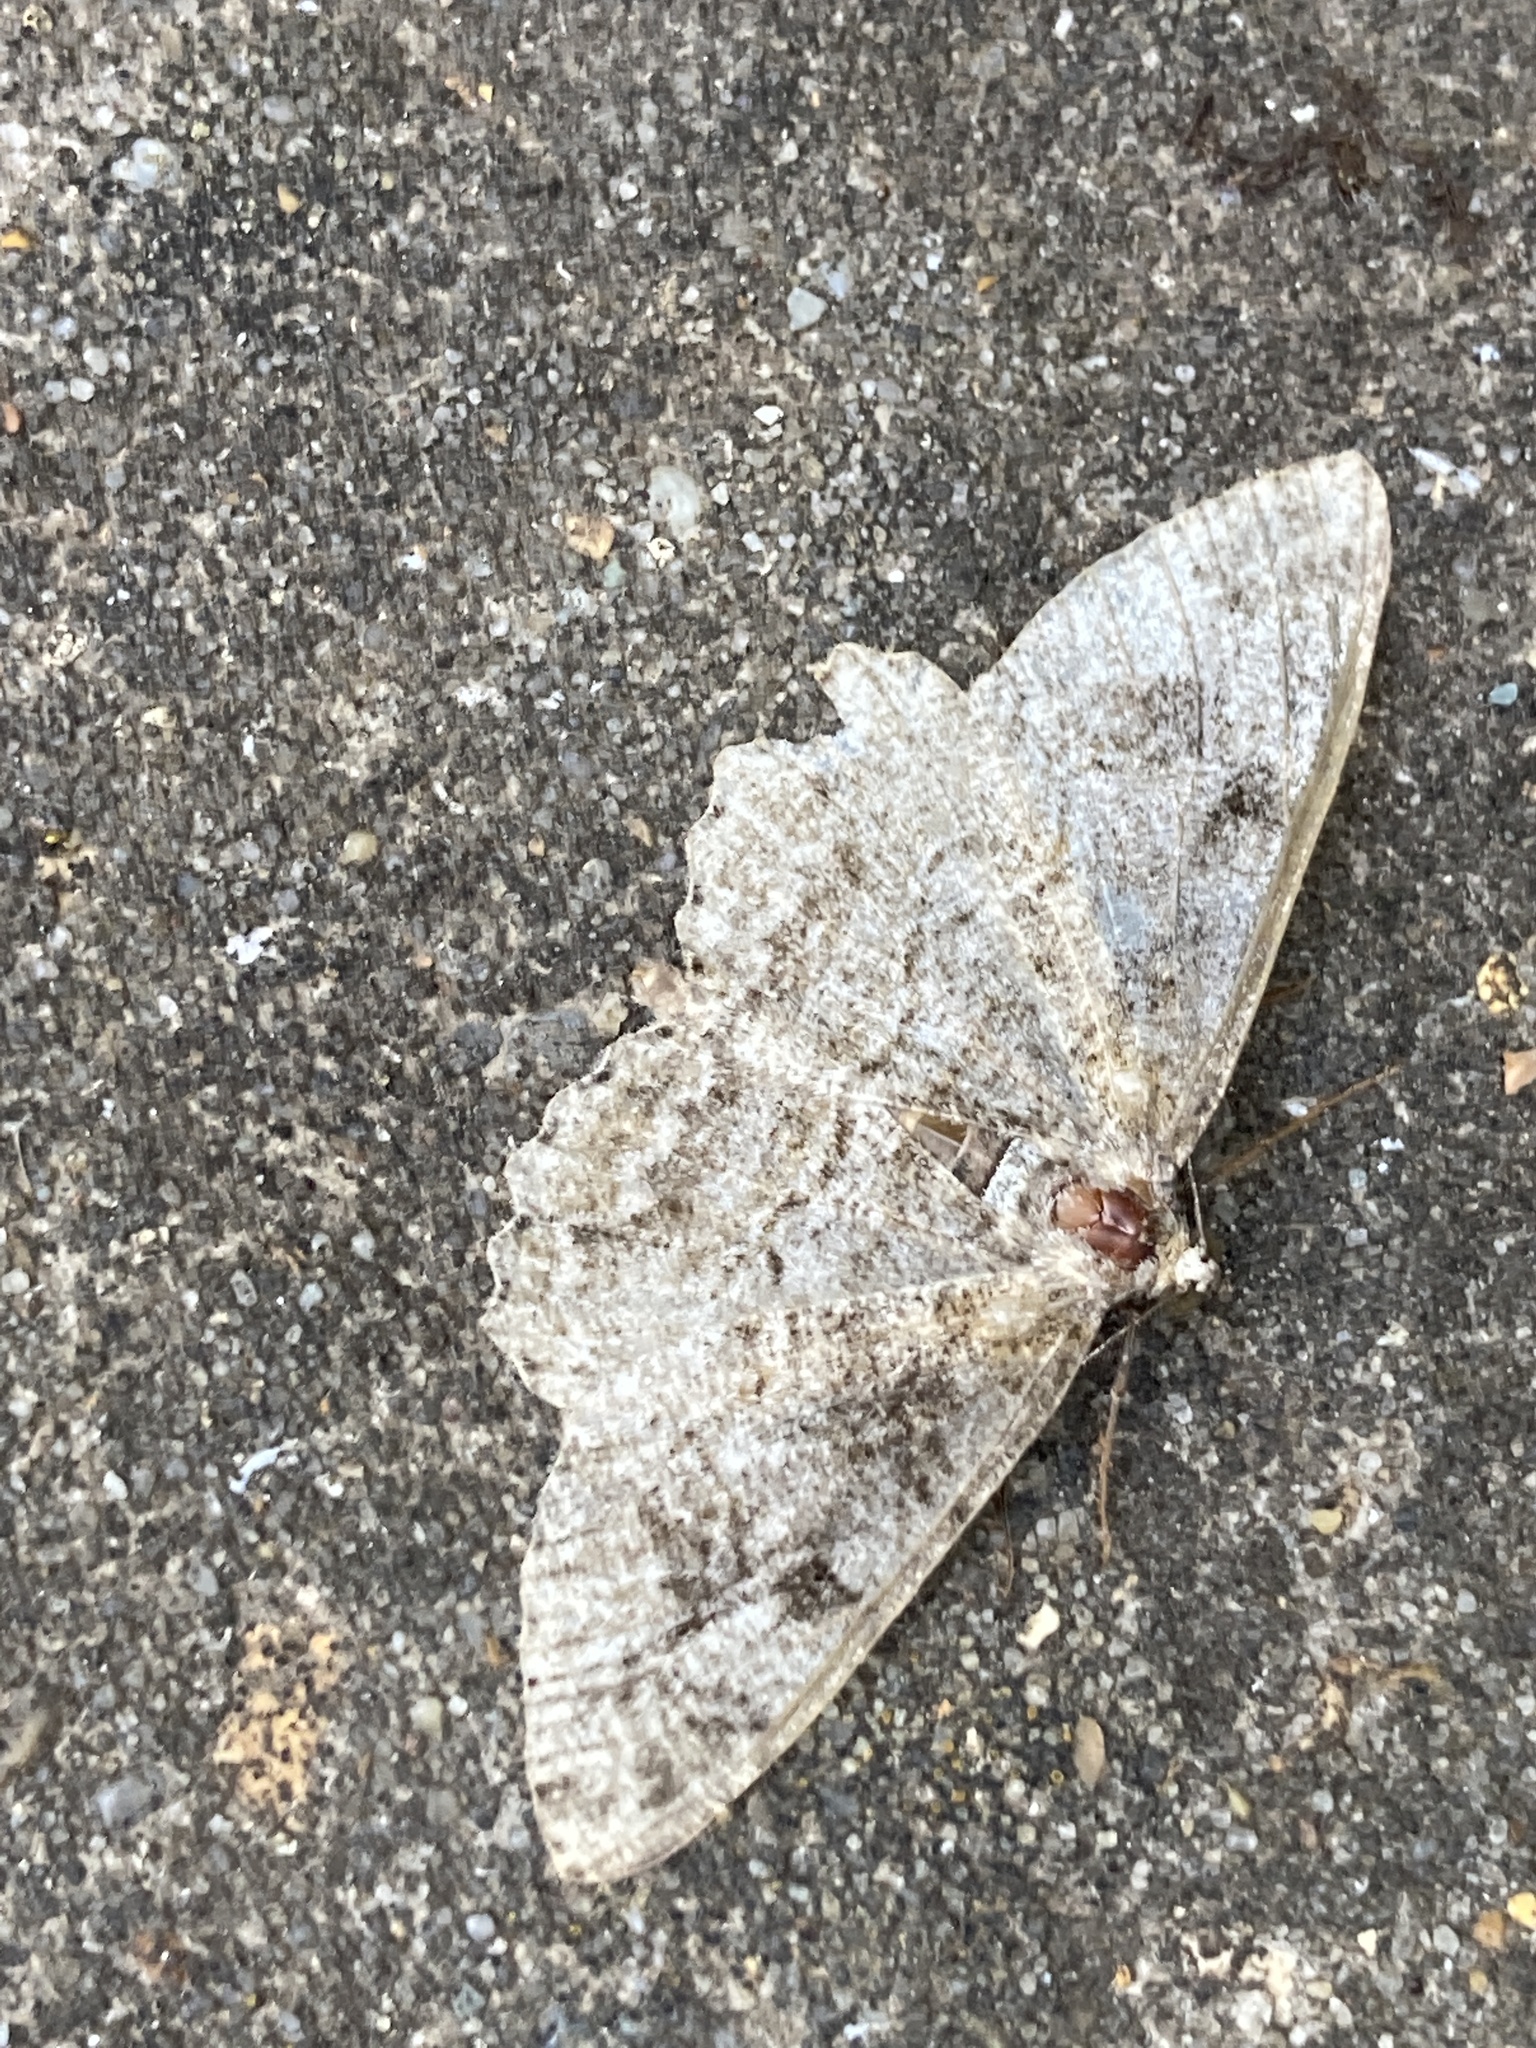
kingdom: Animalia
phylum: Arthropoda
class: Insecta
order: Lepidoptera
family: Geometridae
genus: Alcis
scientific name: Alcis repandata
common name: Mottled beauty
